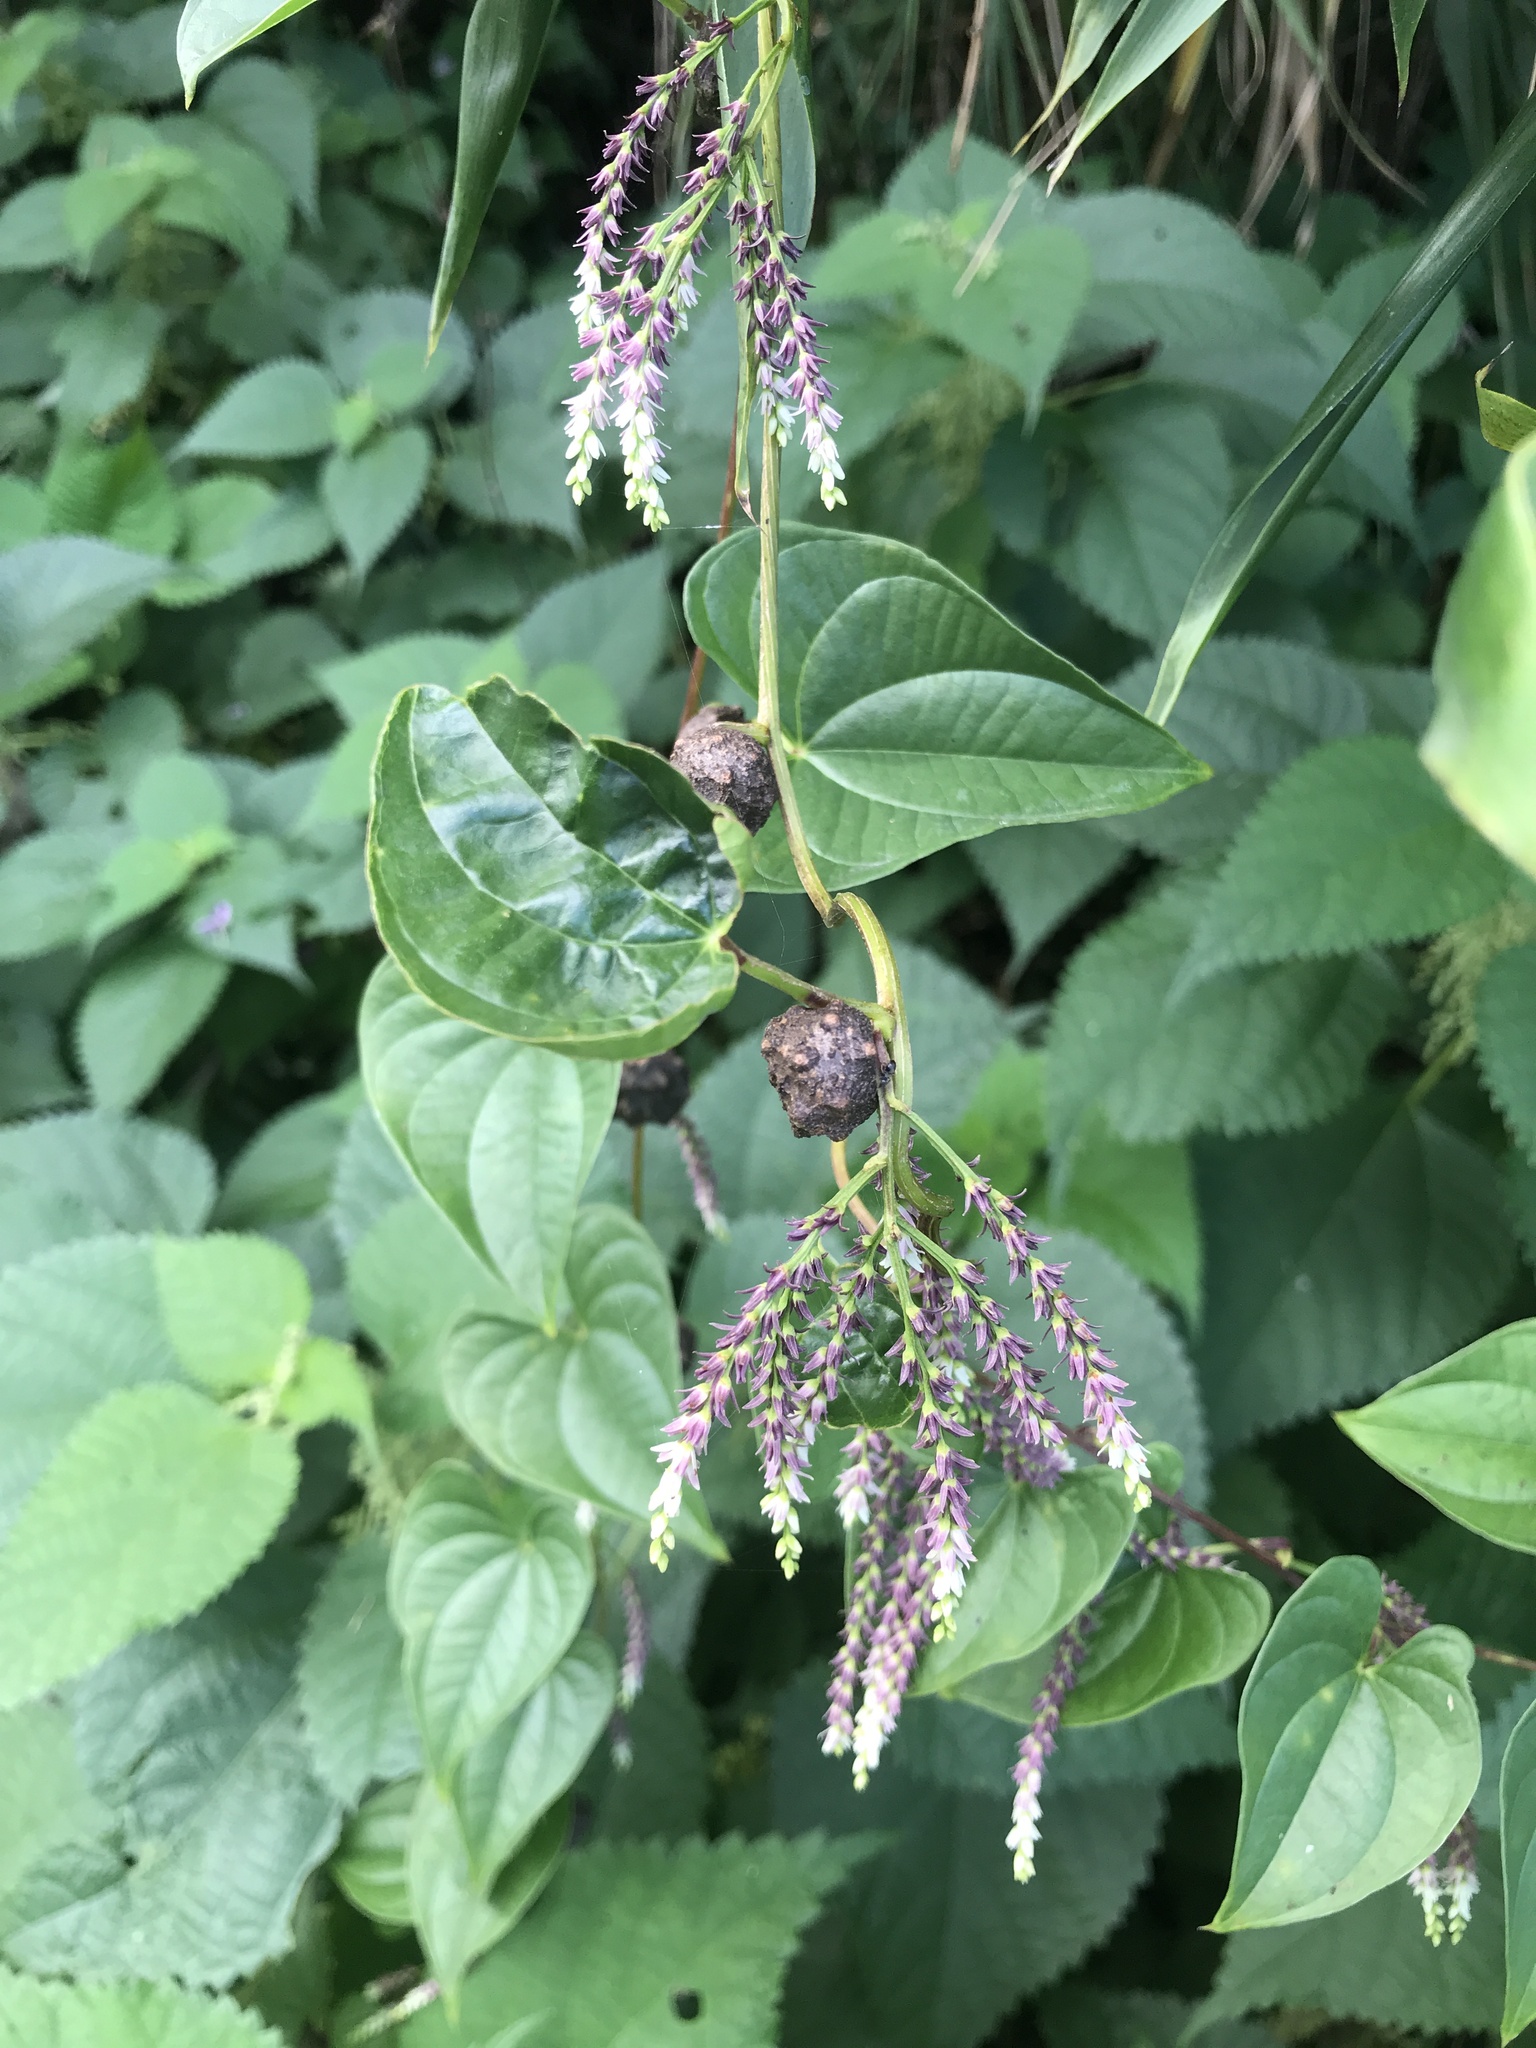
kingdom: Plantae
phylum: Tracheophyta
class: Liliopsida
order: Dioscoreales
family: Dioscoreaceae
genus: Dioscorea
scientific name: Dioscorea bulbifera
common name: Air yam
